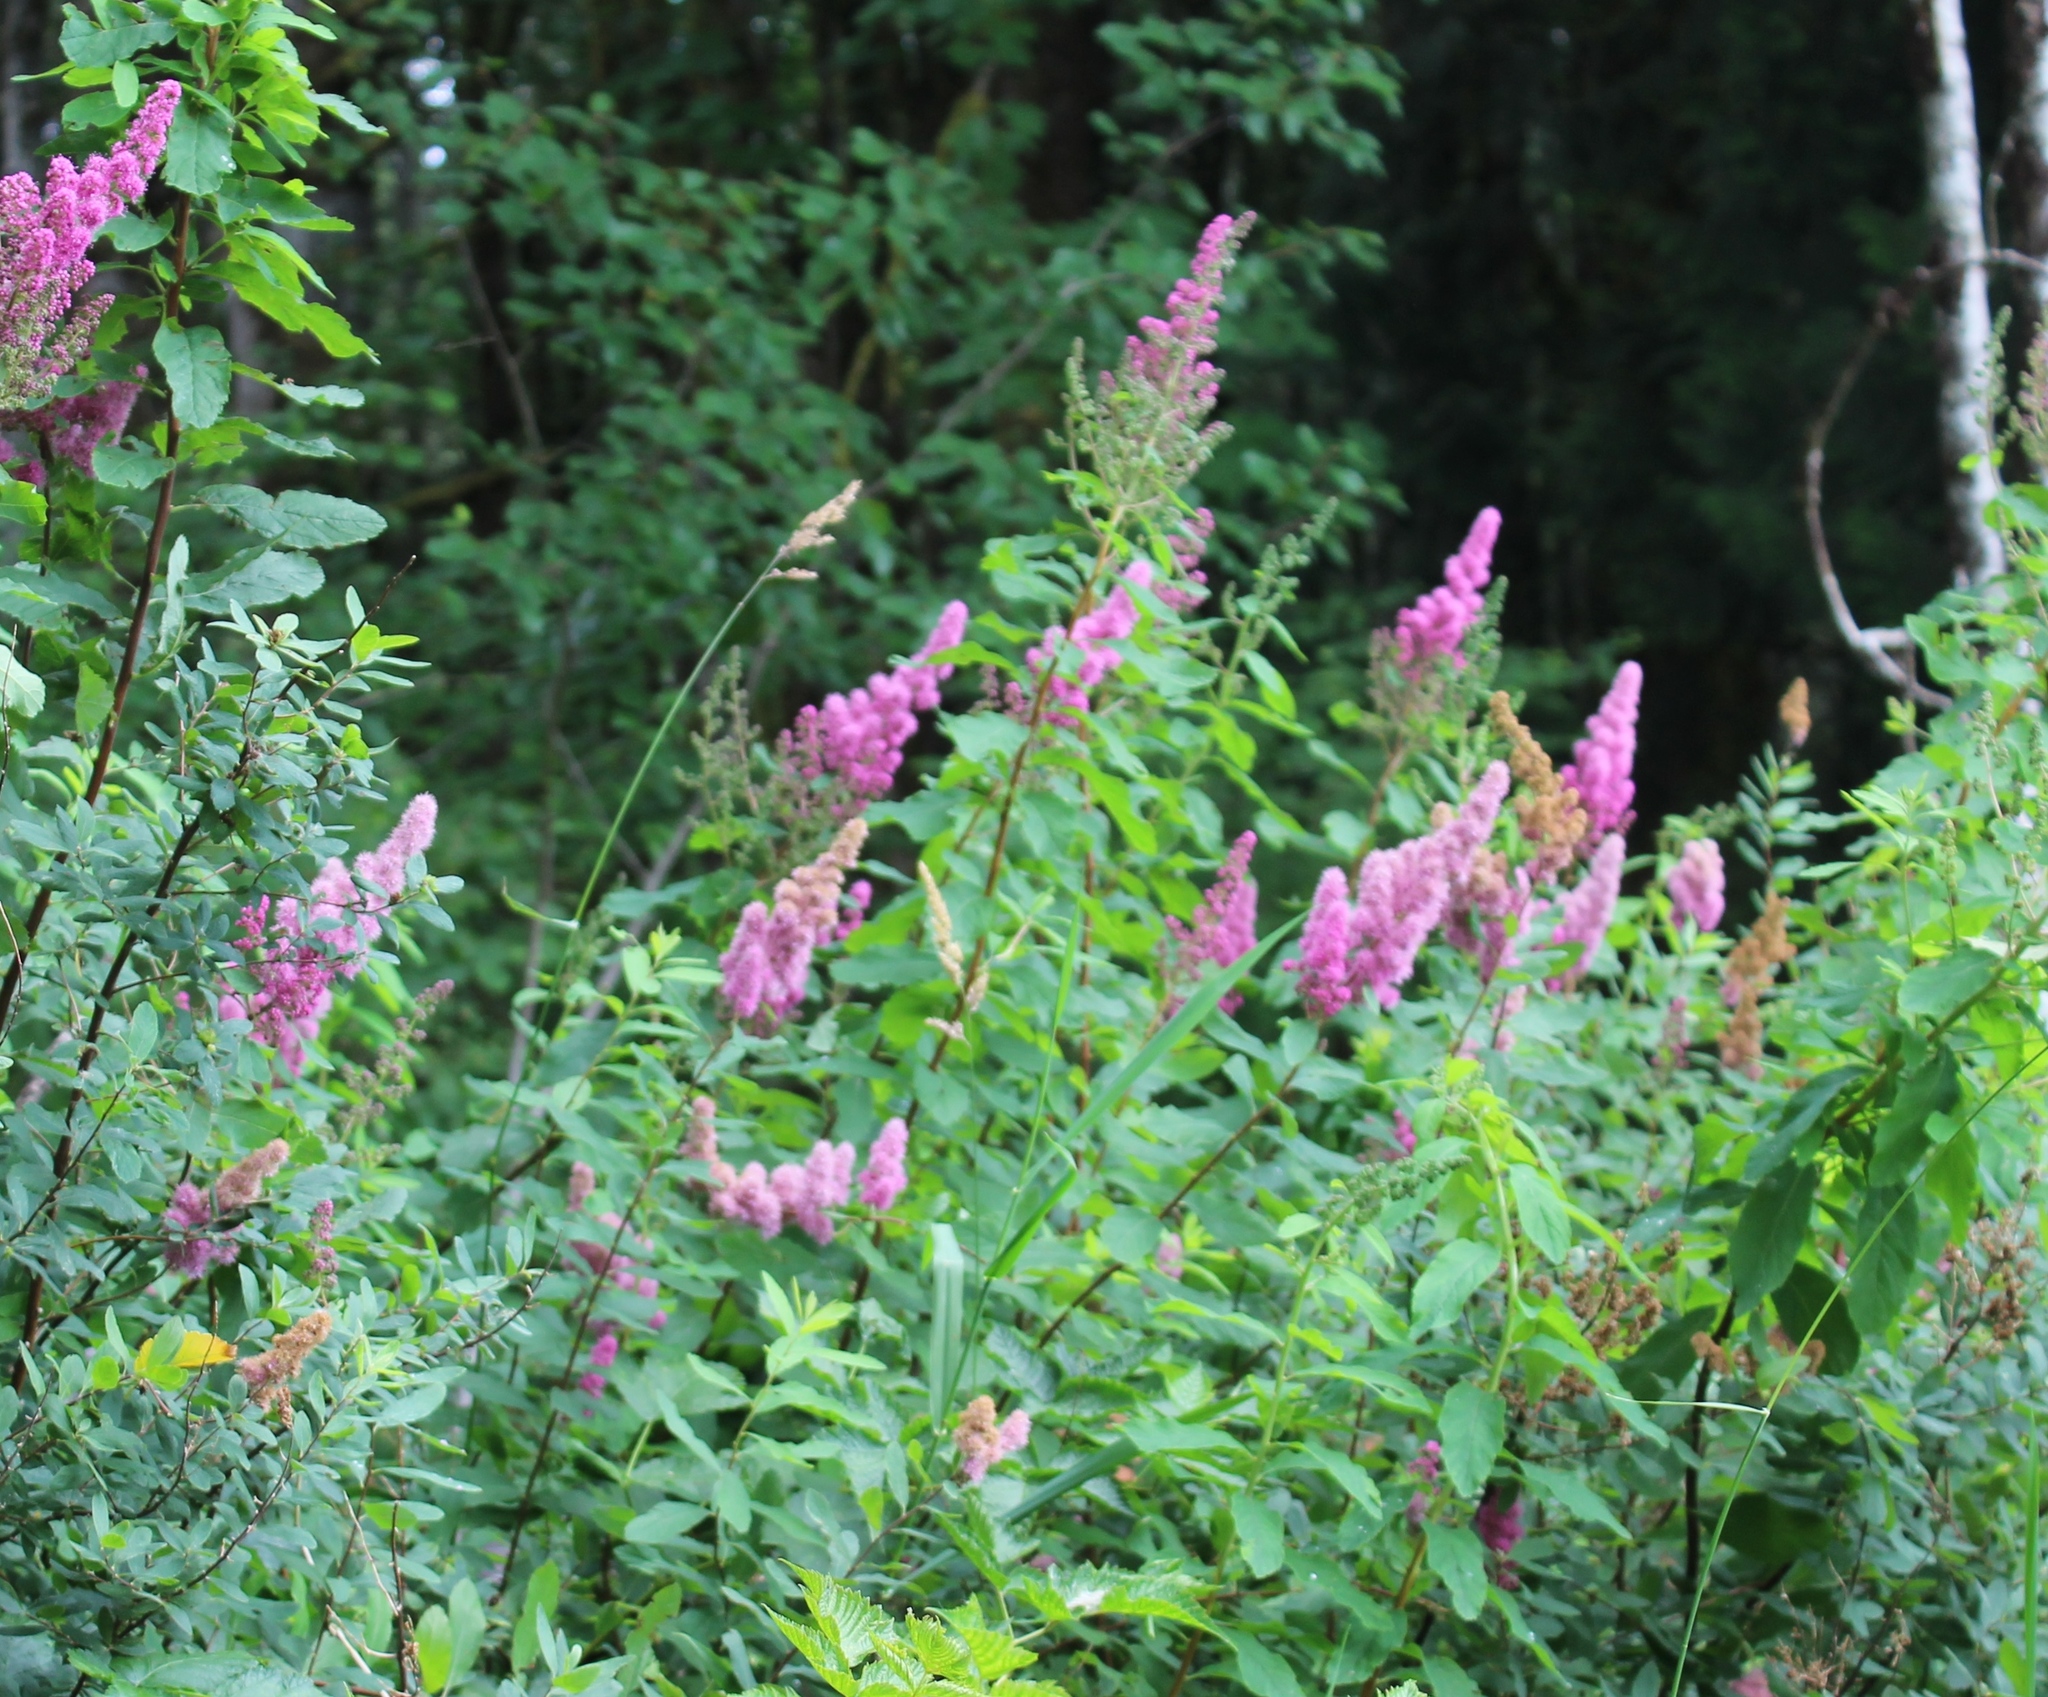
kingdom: Plantae
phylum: Tracheophyta
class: Magnoliopsida
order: Rosales
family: Rosaceae
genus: Spiraea
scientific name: Spiraea douglasii
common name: Steeplebush
